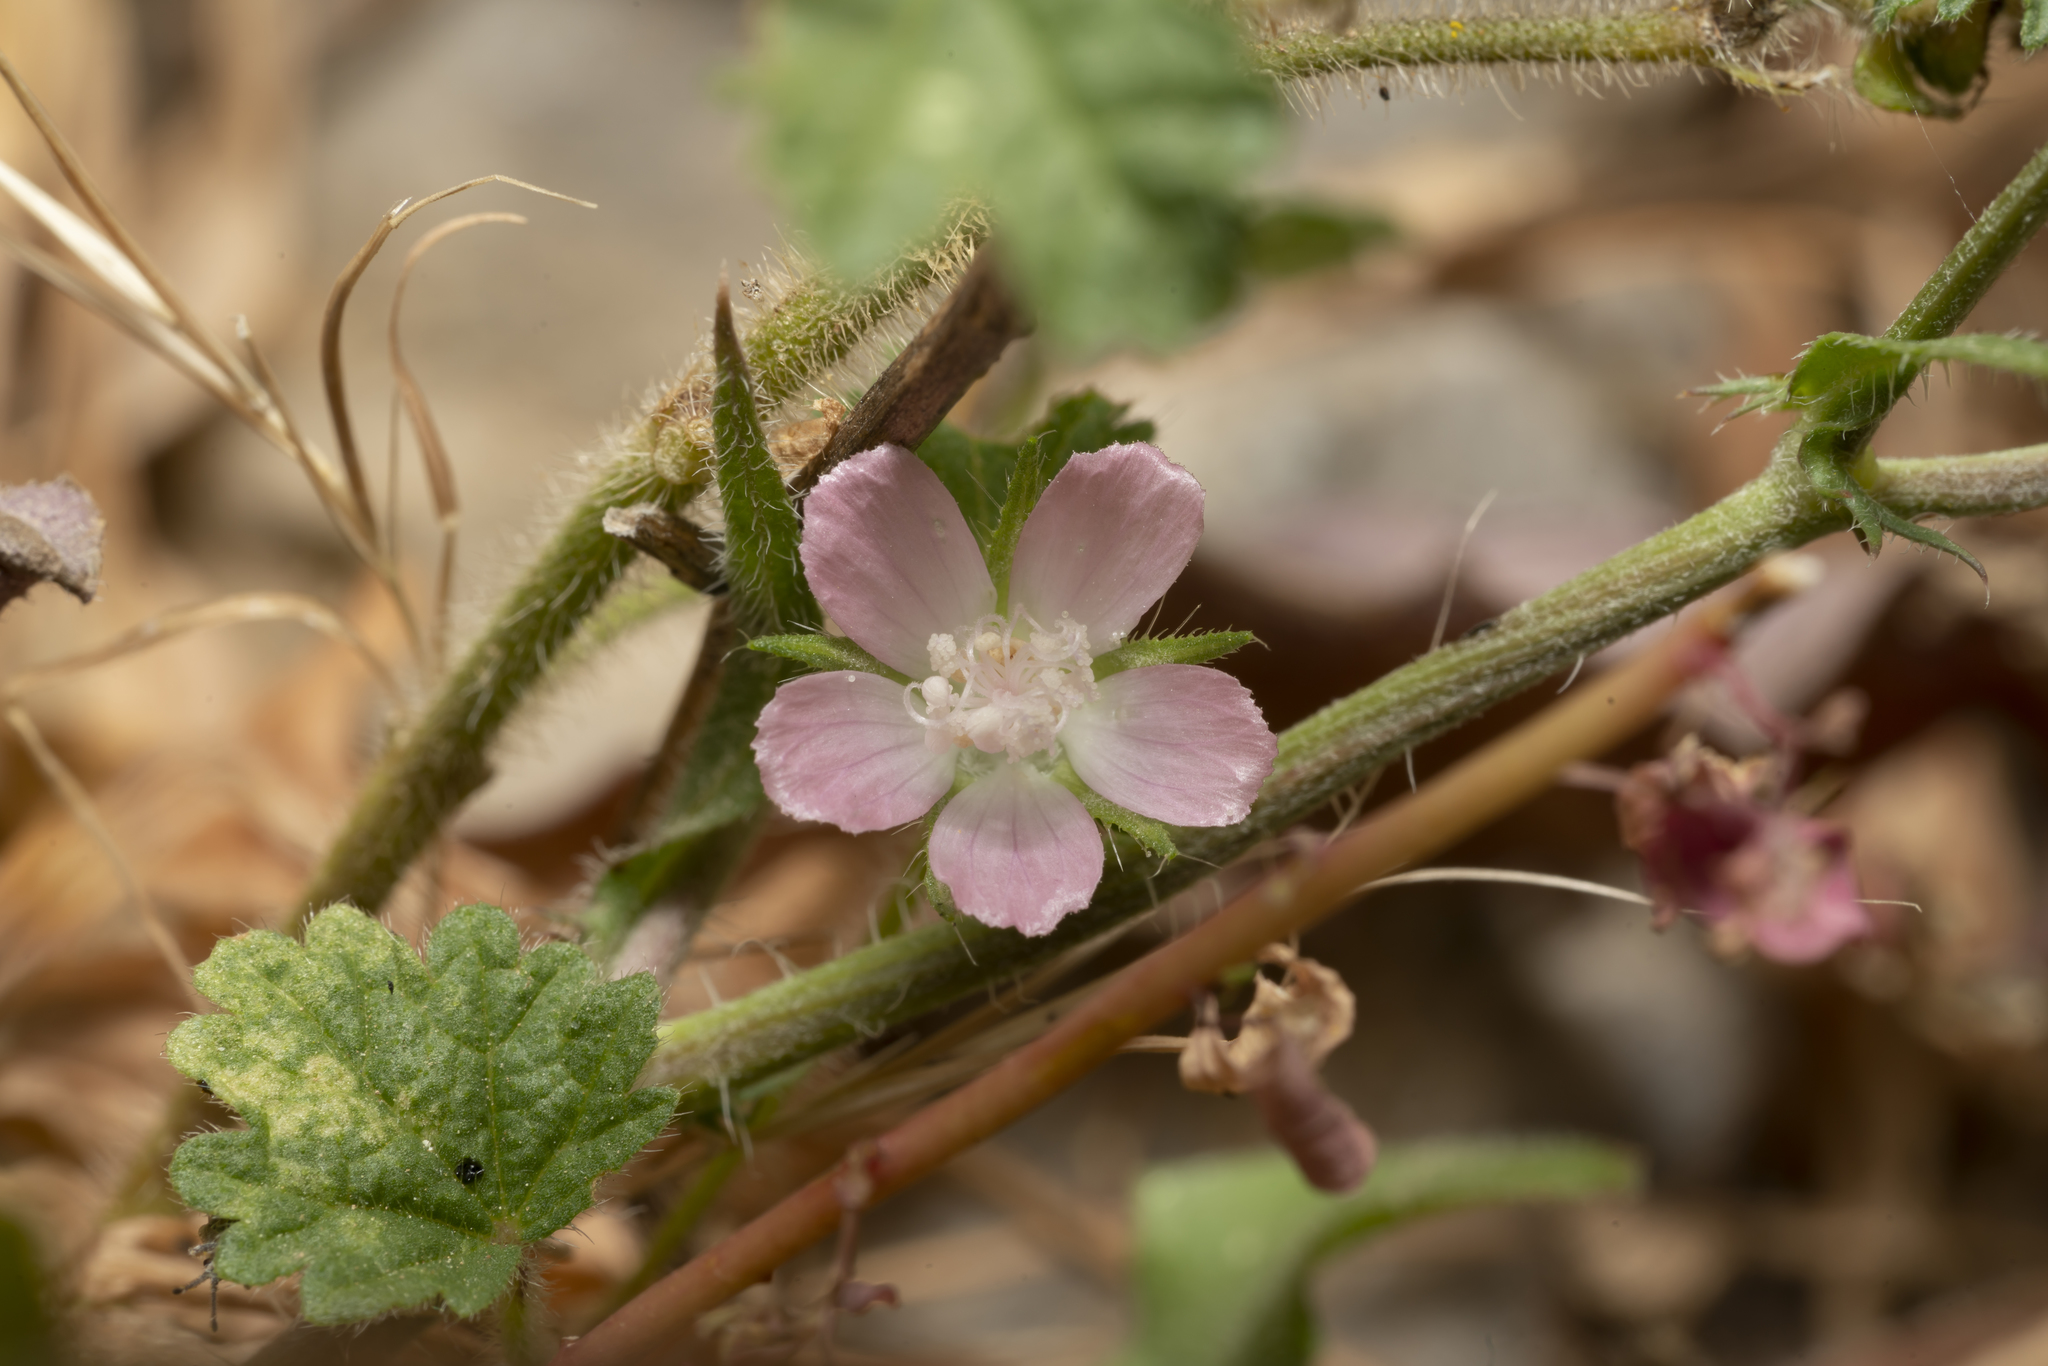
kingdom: Plantae
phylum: Tracheophyta
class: Magnoliopsida
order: Malvales
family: Malvaceae
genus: Malva
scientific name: Malva cretica
